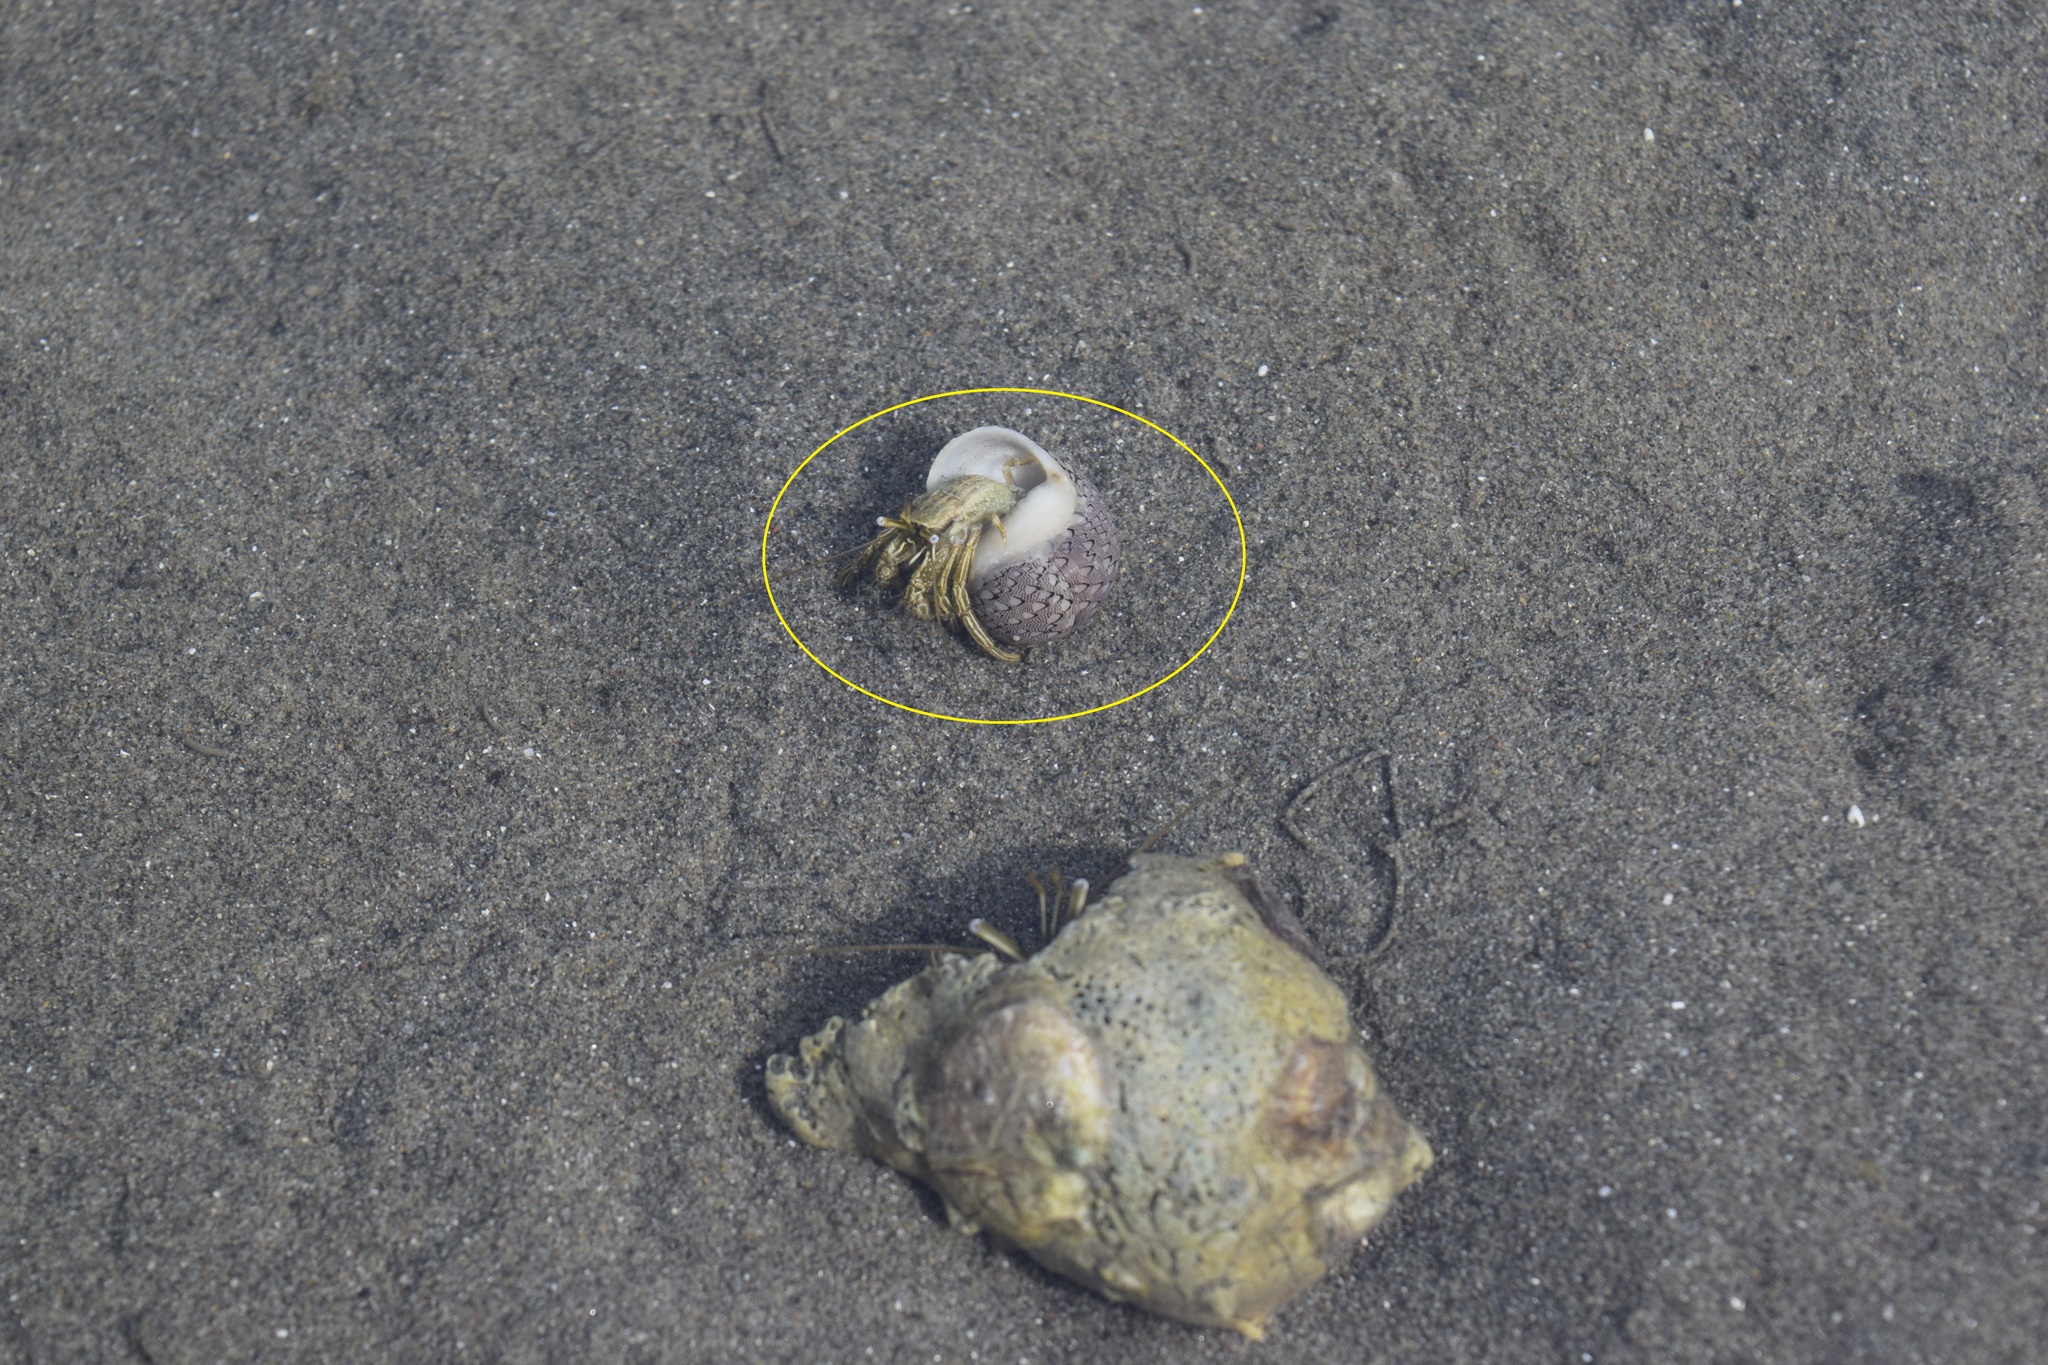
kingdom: Animalia
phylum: Arthropoda
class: Malacostraca
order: Decapoda
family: Diogenidae
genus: Clibanarius
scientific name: Clibanarius vittatus
